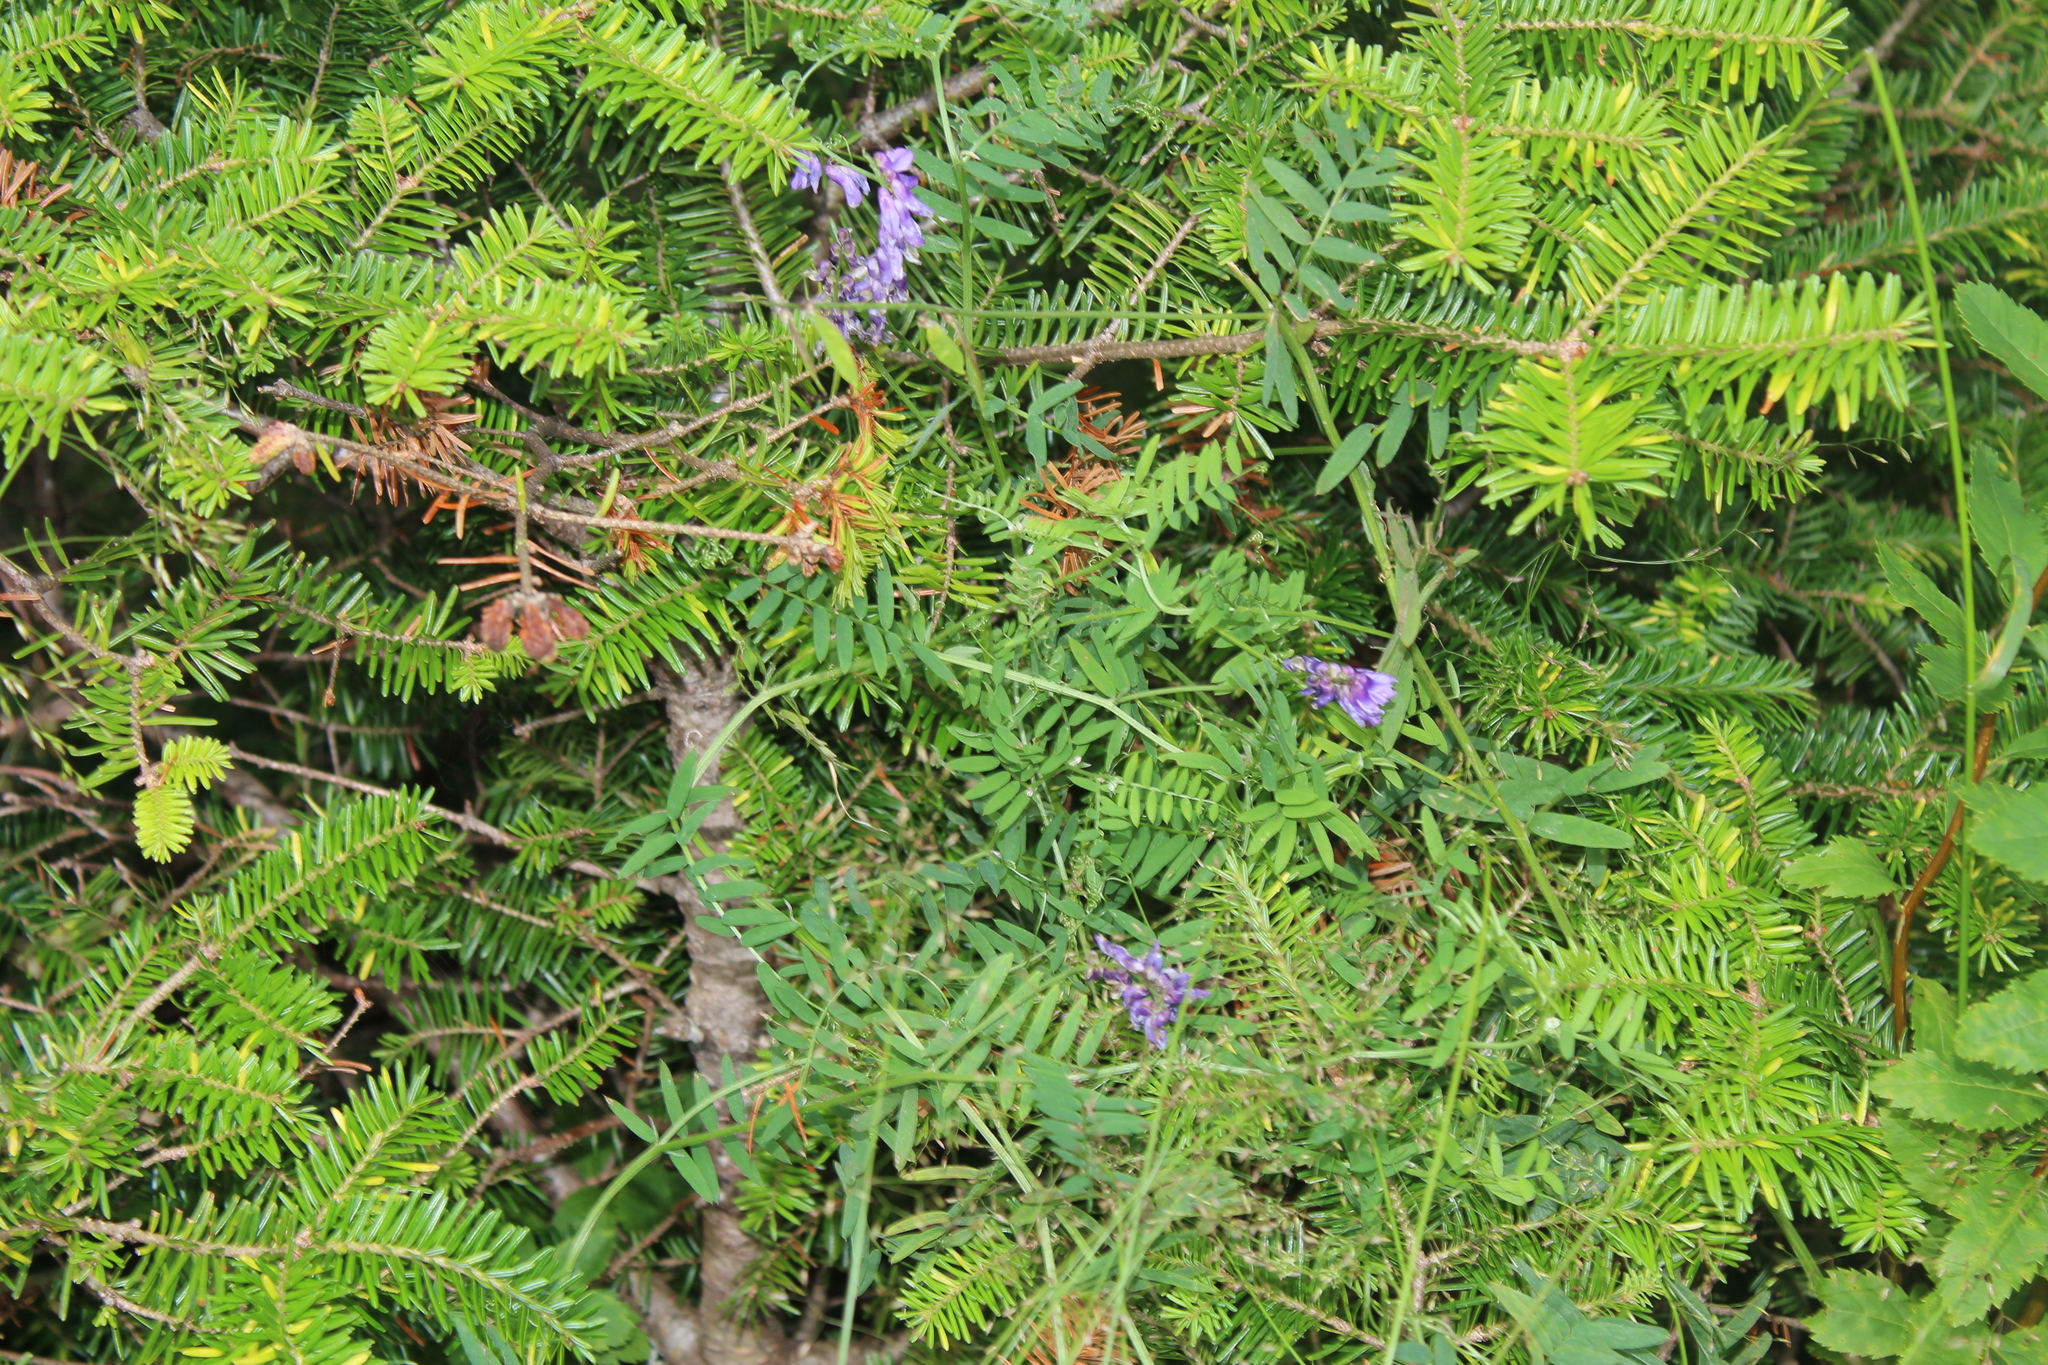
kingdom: Plantae
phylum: Tracheophyta
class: Magnoliopsida
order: Fabales
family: Fabaceae
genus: Vicia
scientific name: Vicia cracca
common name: Bird vetch
